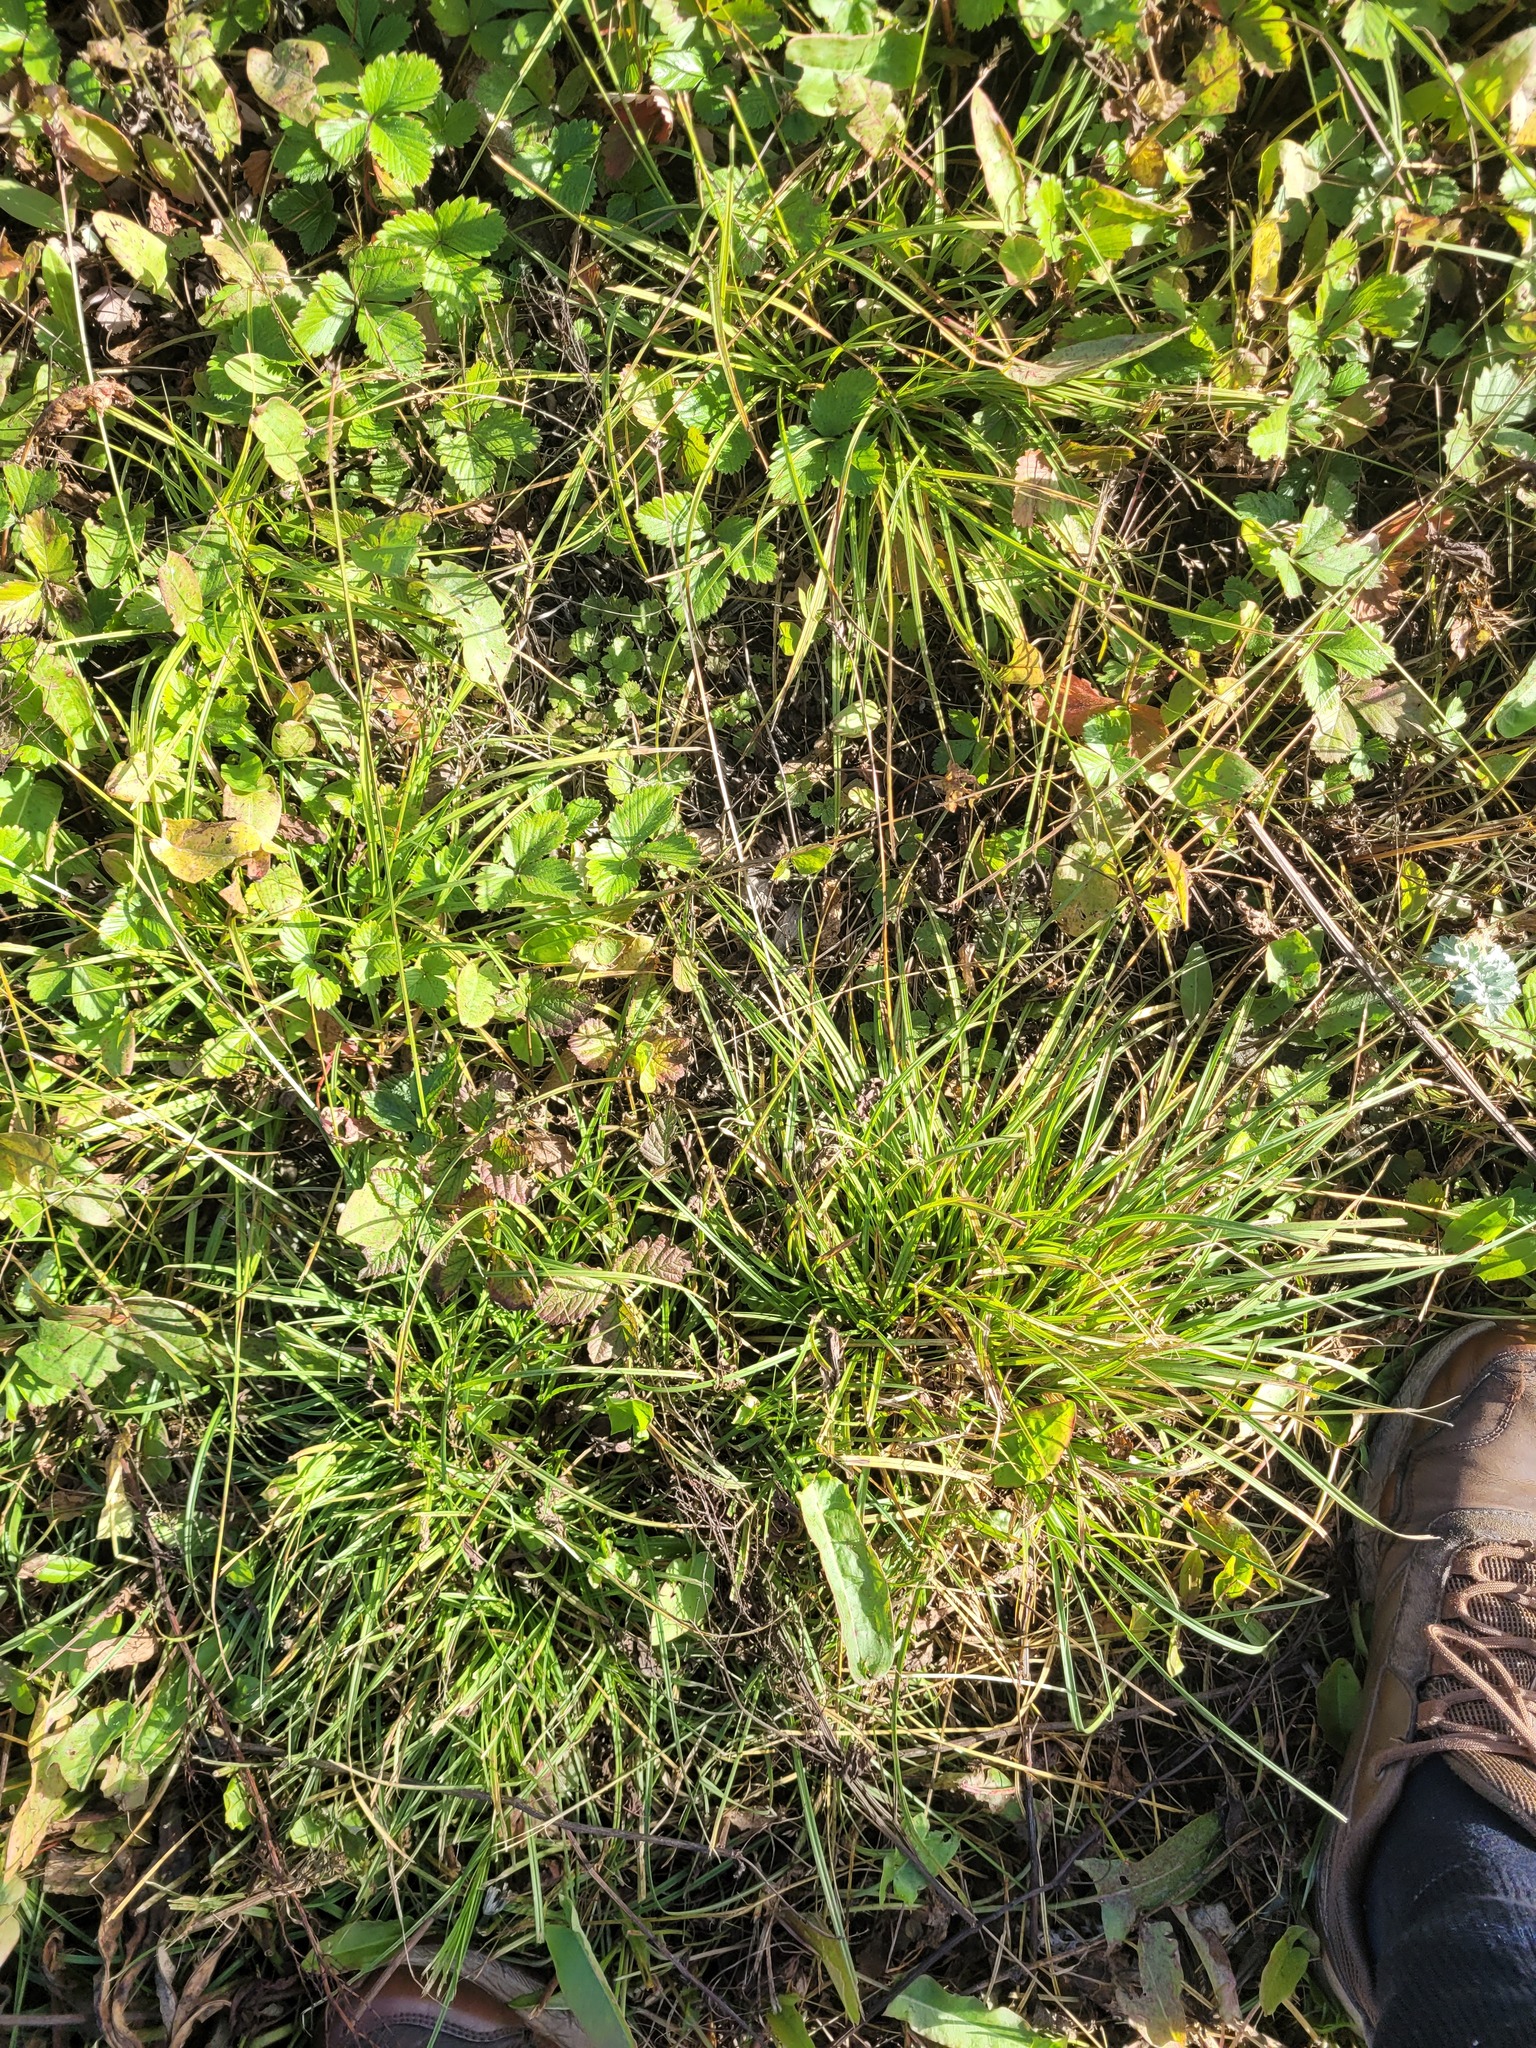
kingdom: Plantae
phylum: Tracheophyta
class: Liliopsida
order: Poales
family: Cyperaceae
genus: Carex
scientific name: Carex spicata
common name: Spiked sedge
